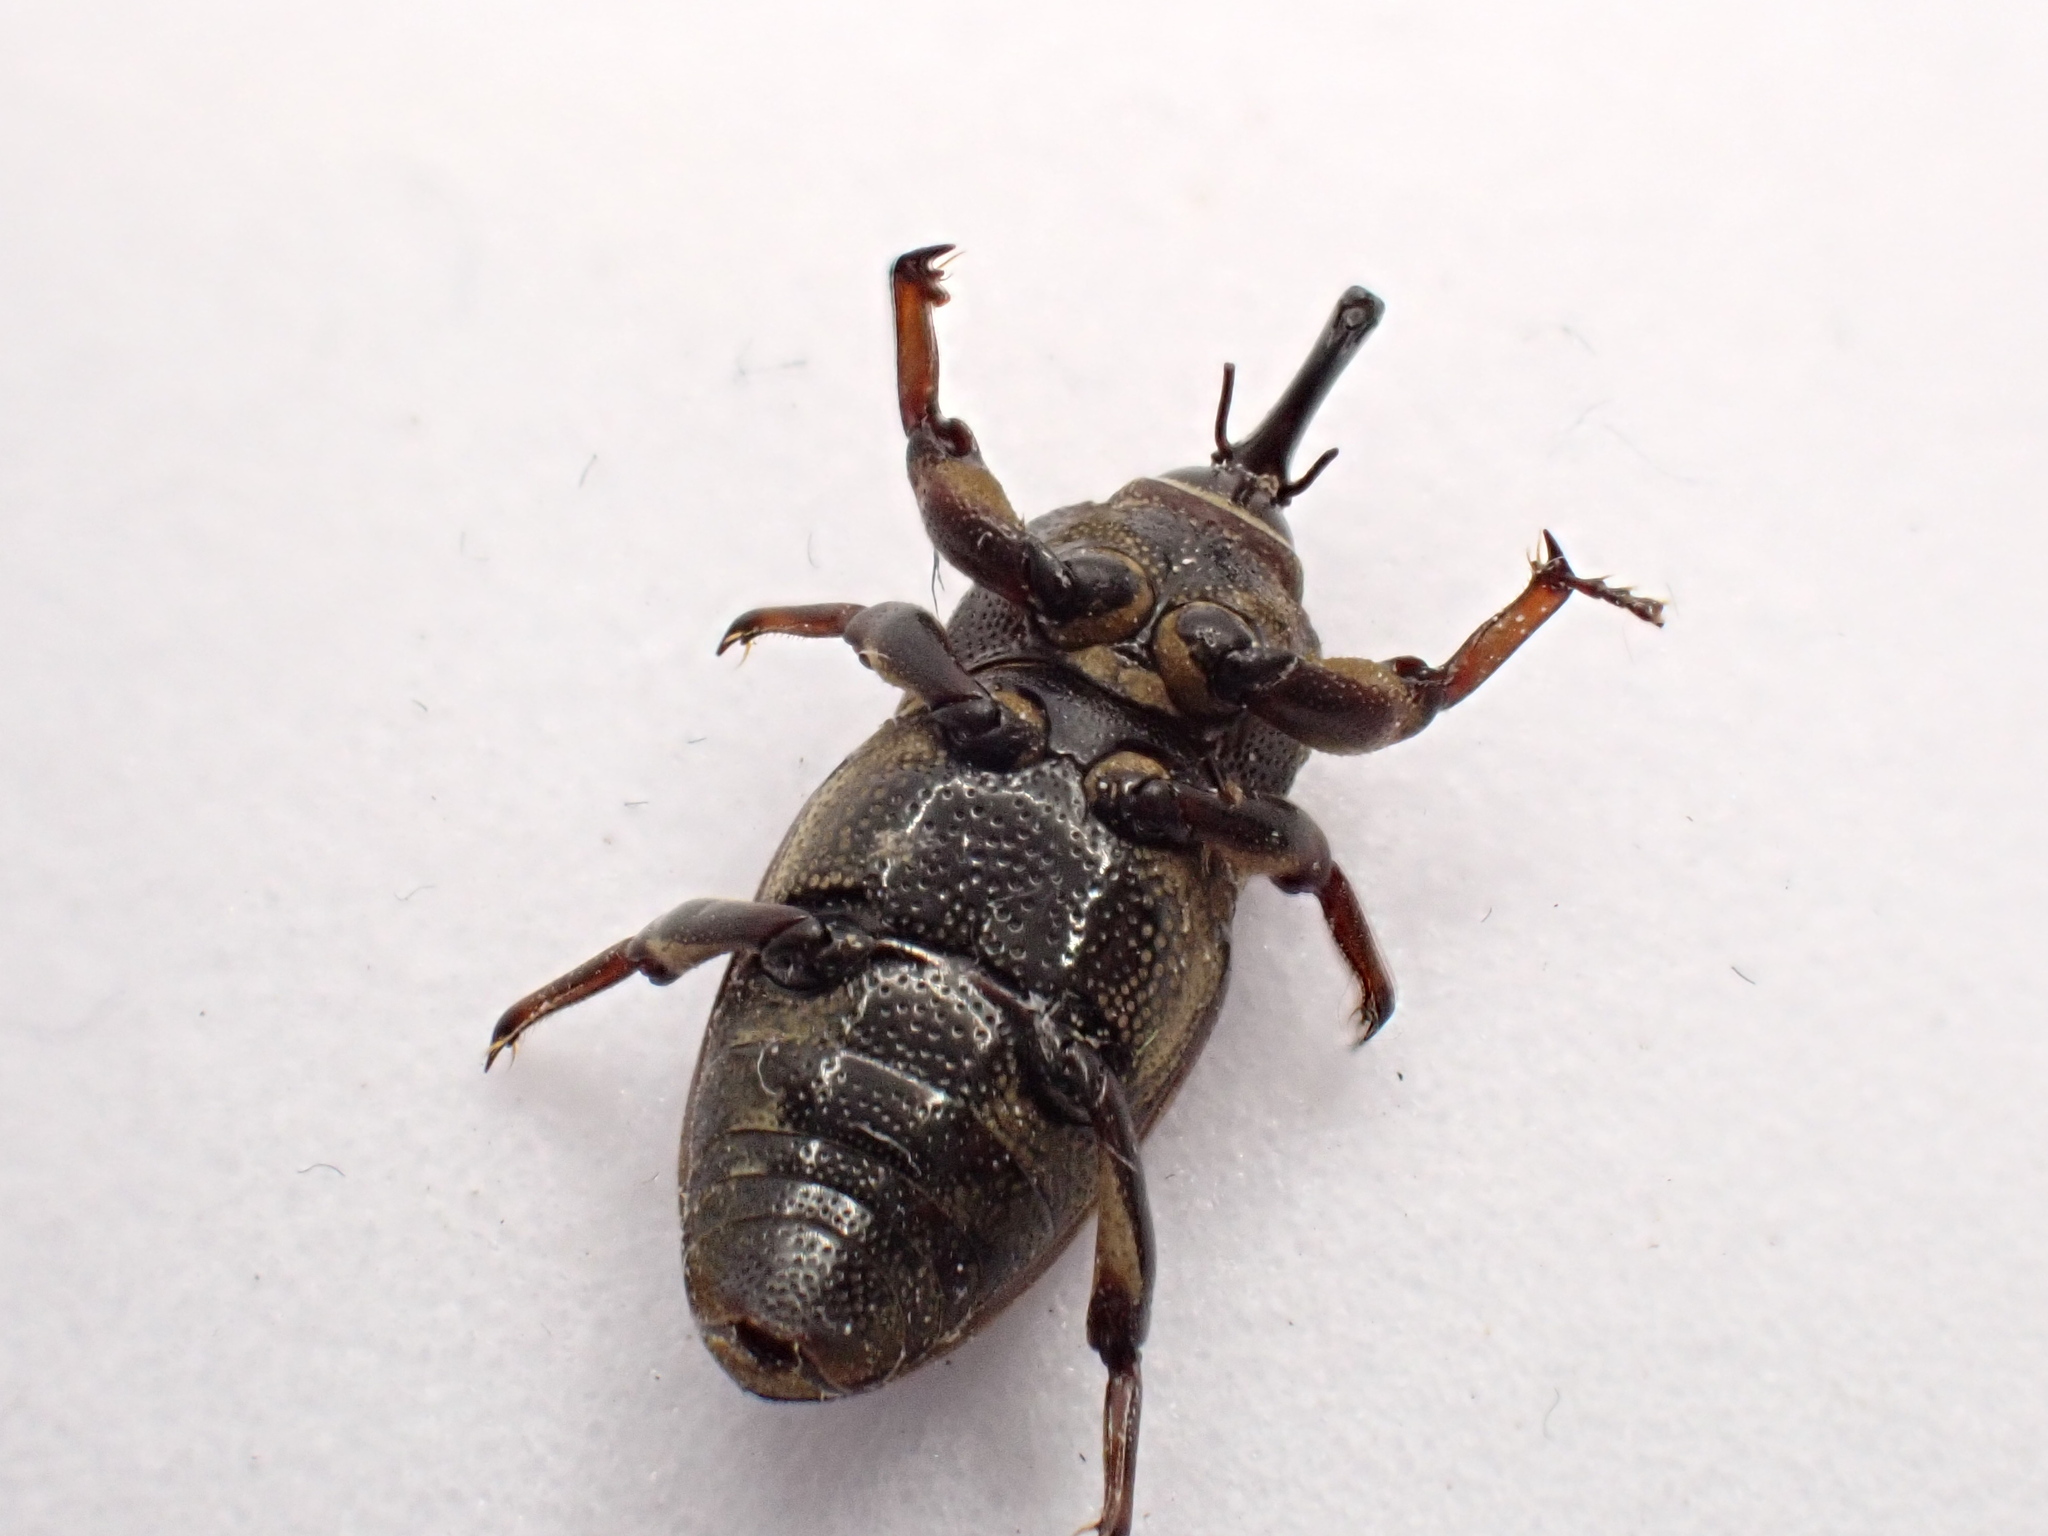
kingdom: Animalia
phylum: Arthropoda
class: Insecta
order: Coleoptera
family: Dryophthoridae
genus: Sphenophorus
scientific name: Sphenophorus venatus
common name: Hunting billbug
